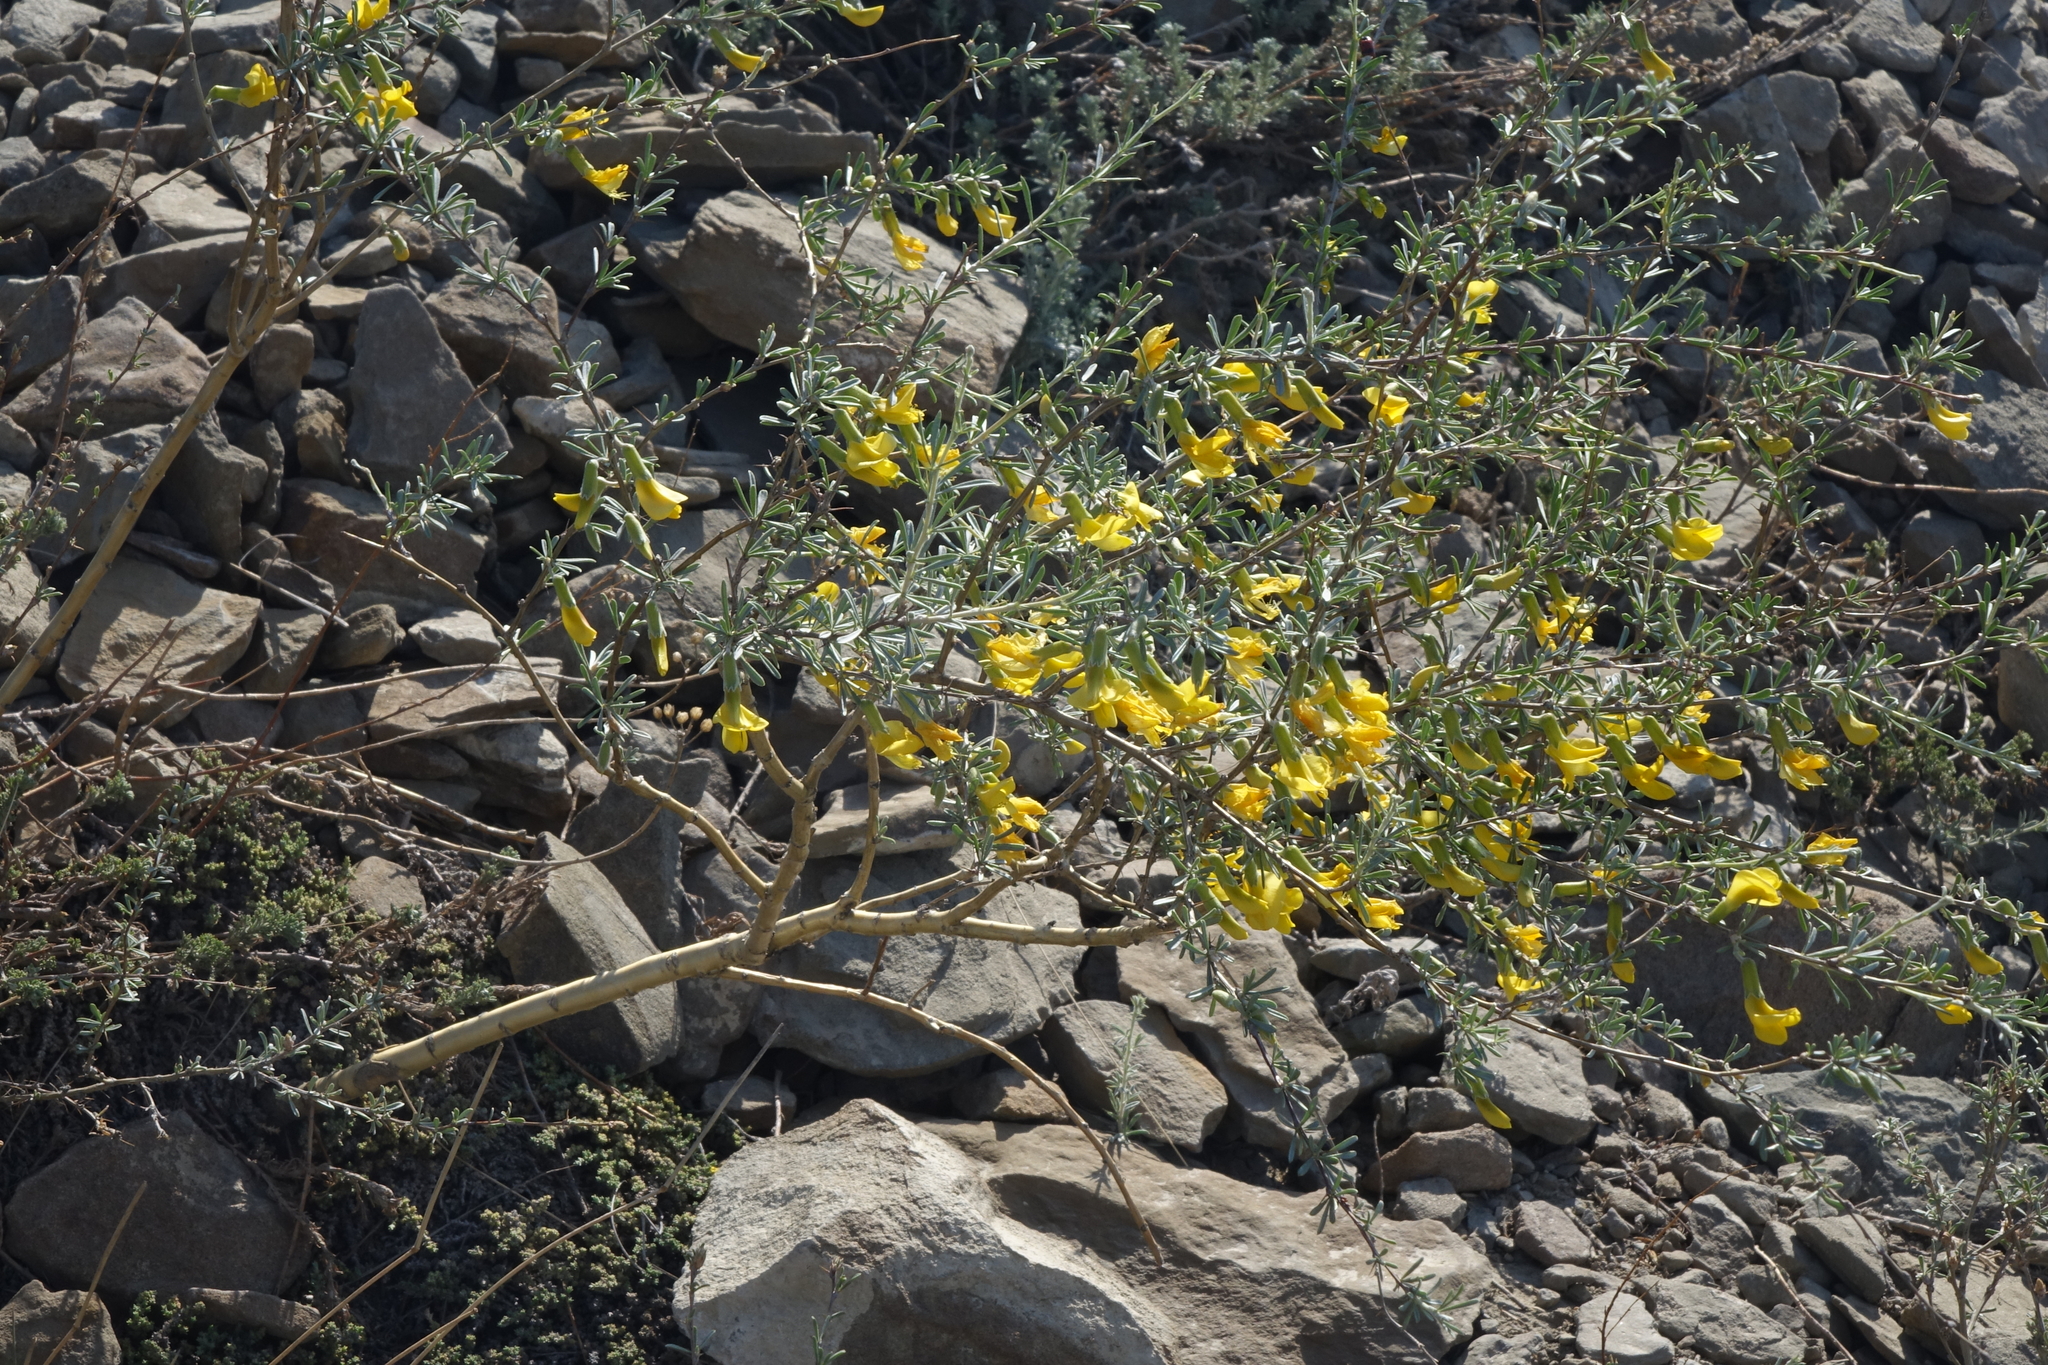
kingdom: Plantae
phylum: Tracheophyta
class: Magnoliopsida
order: Fabales
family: Fabaceae
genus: Caragana
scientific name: Caragana pygmaea
